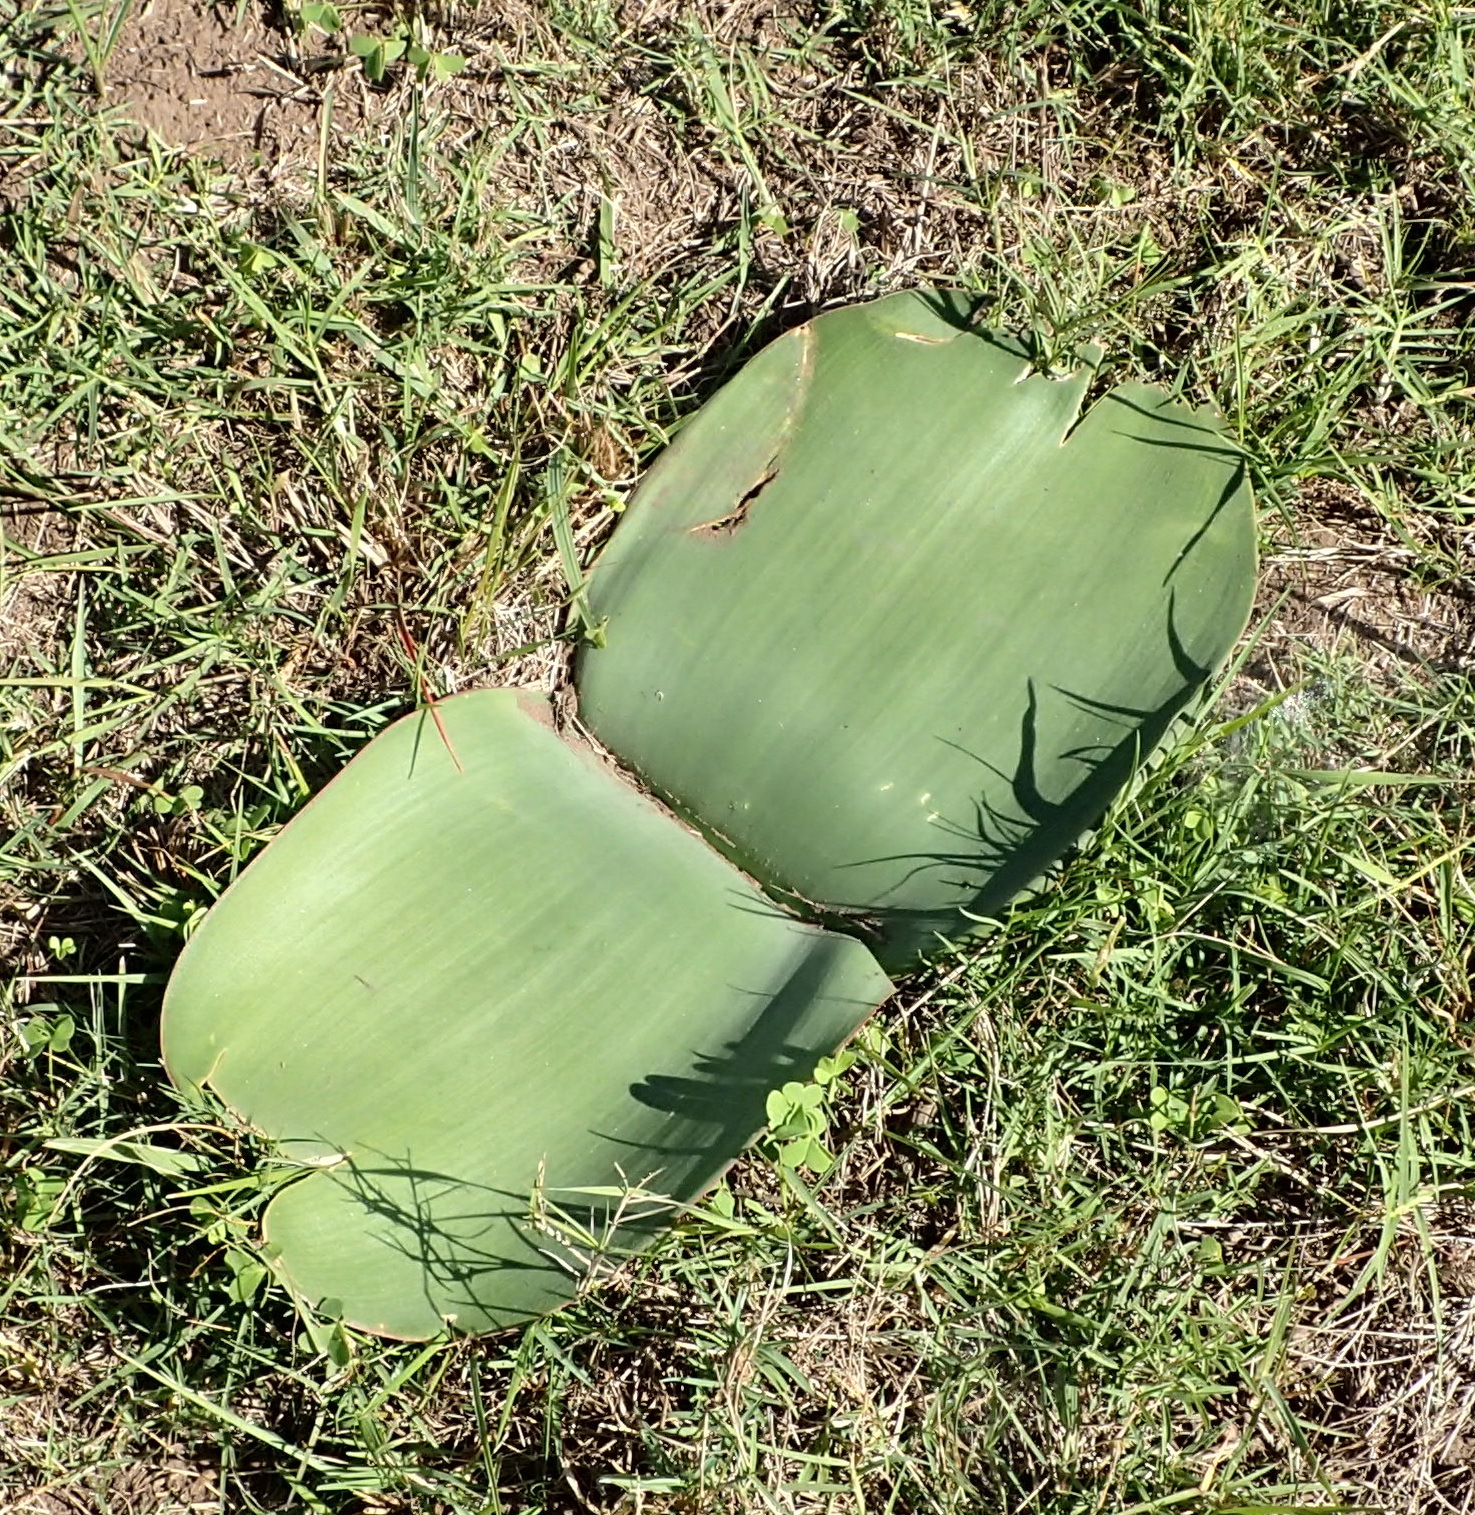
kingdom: Plantae
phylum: Tracheophyta
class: Liliopsida
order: Asparagales
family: Amaryllidaceae
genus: Haemanthus
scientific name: Haemanthus sanguineus
